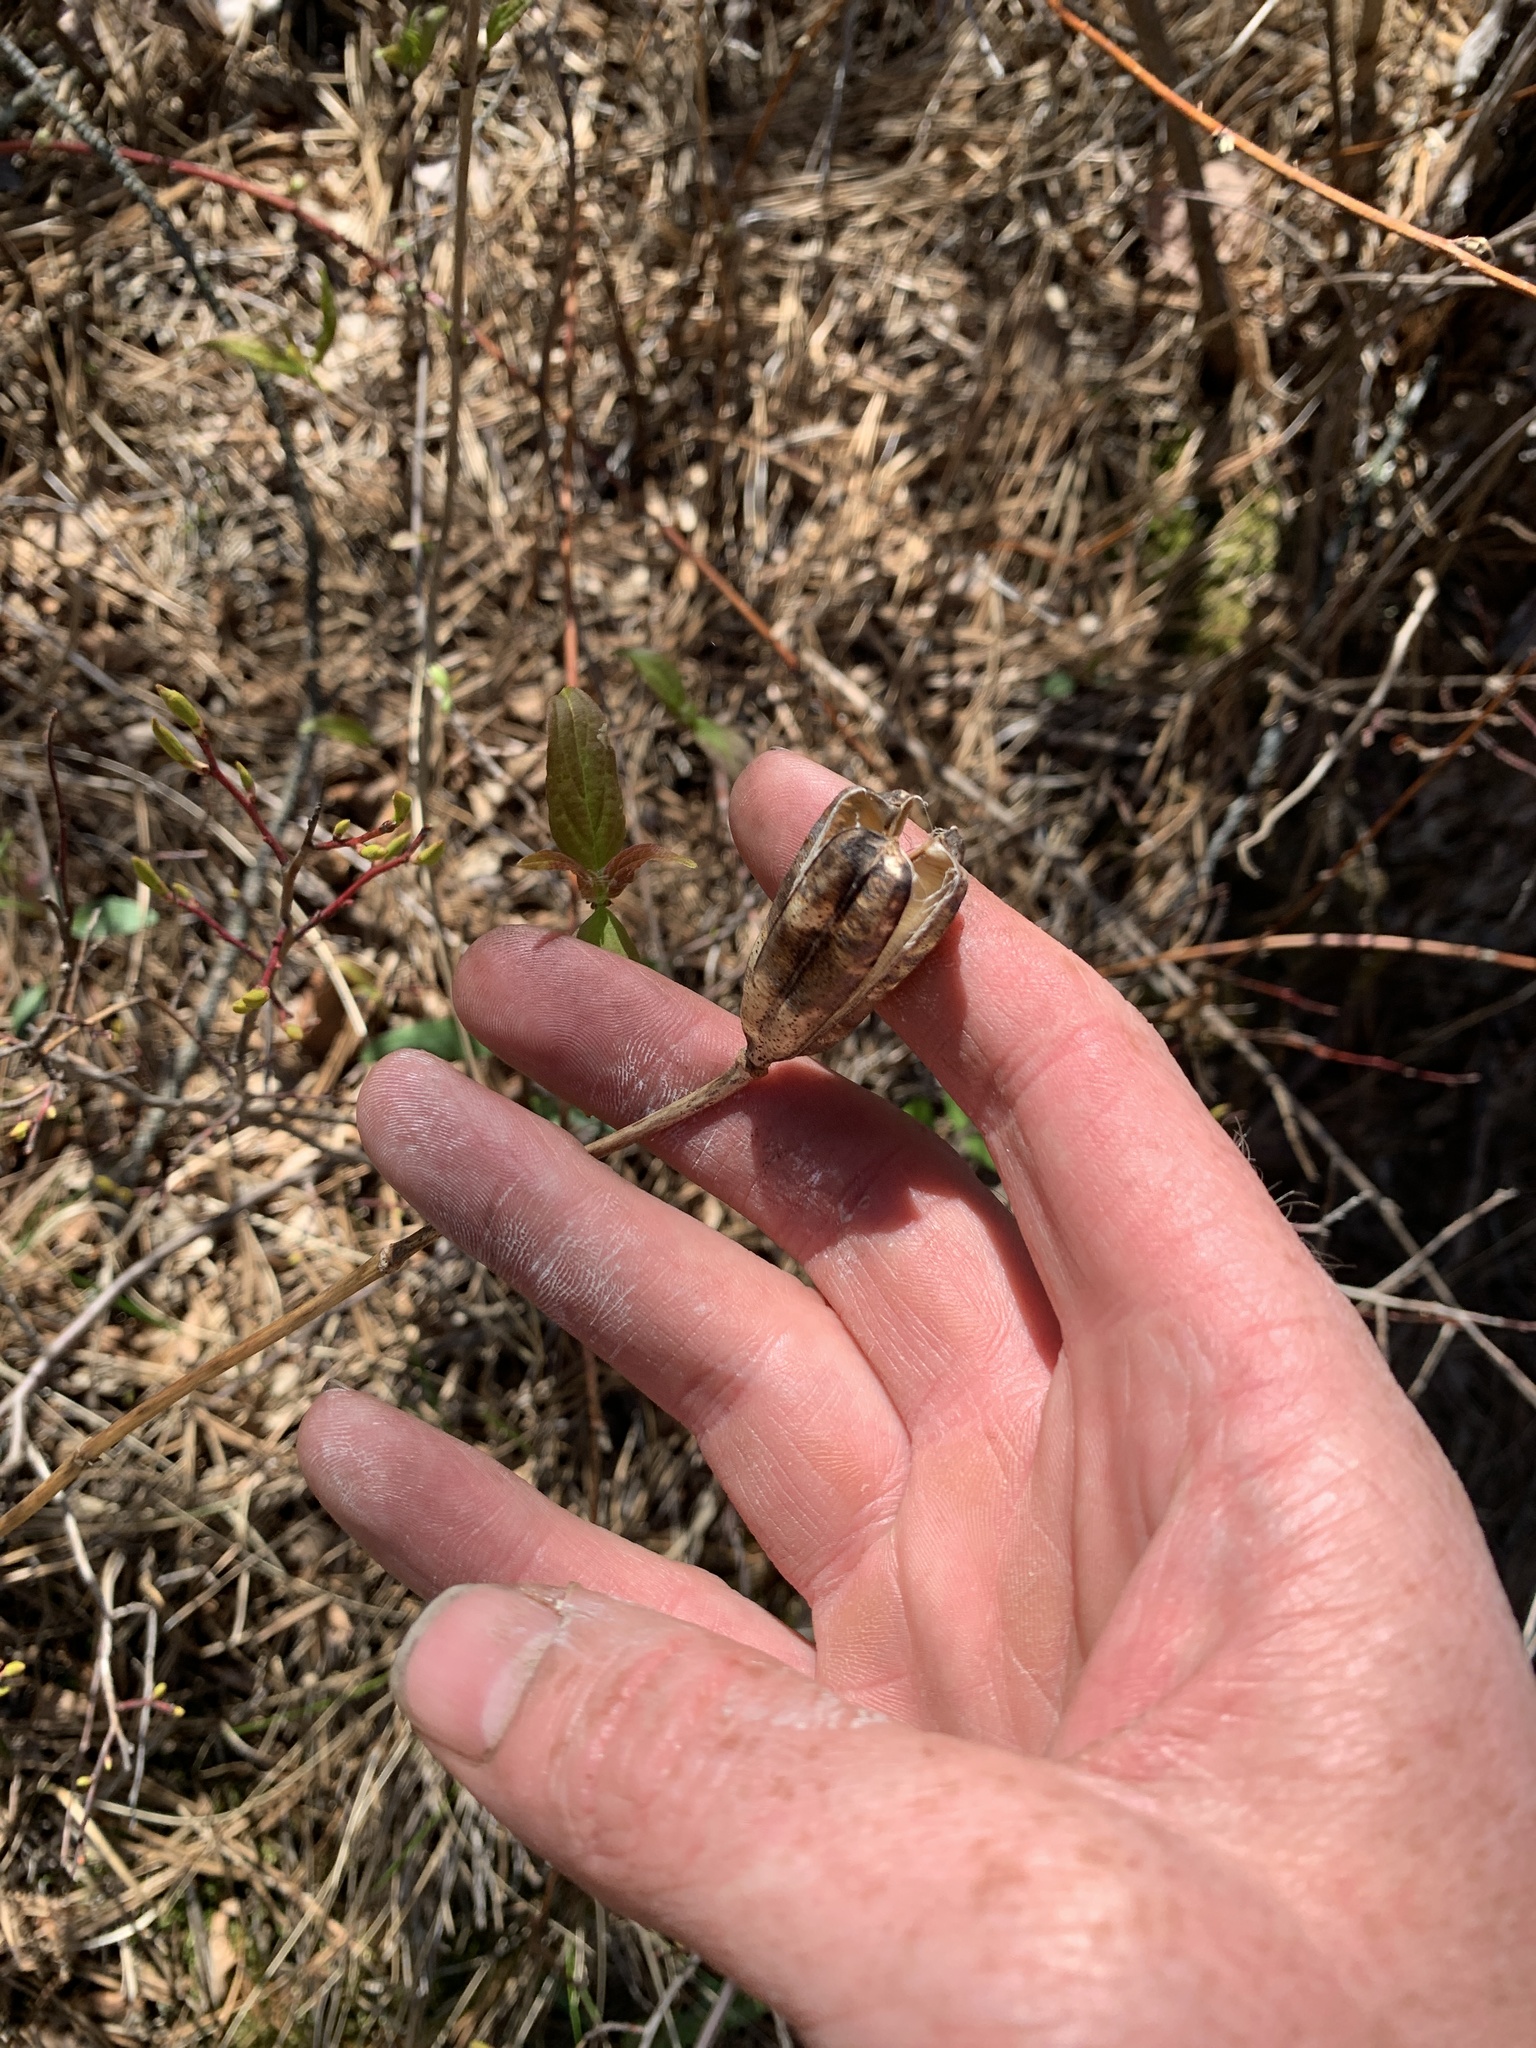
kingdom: Plantae
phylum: Tracheophyta
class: Liliopsida
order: Liliales
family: Liliaceae
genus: Lilium
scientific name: Lilium philadelphicum
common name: Red lily
